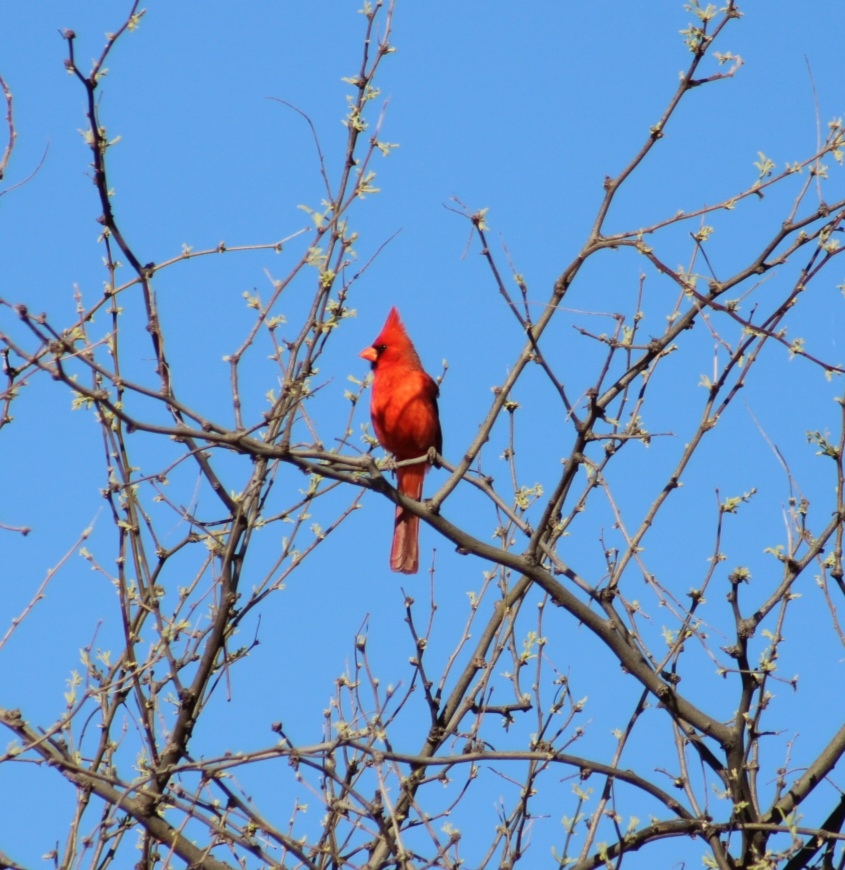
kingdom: Animalia
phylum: Chordata
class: Aves
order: Passeriformes
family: Cardinalidae
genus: Cardinalis
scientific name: Cardinalis cardinalis
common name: Northern cardinal
